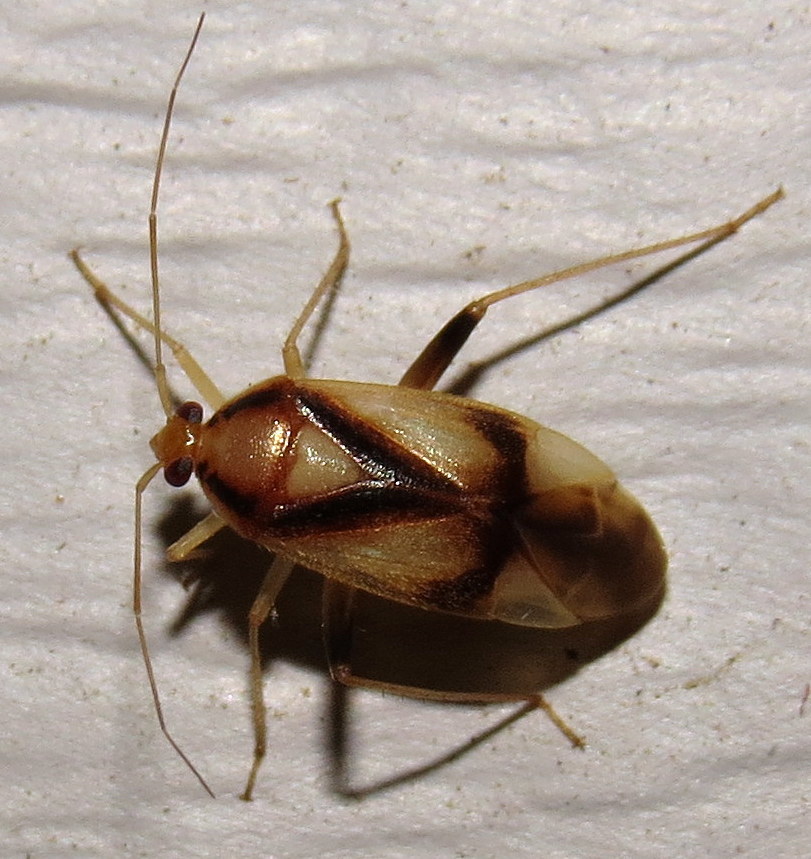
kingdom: Animalia
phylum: Arthropoda
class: Insecta
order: Hemiptera
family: Miridae
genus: Neolygus
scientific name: Neolygus vitticollis
